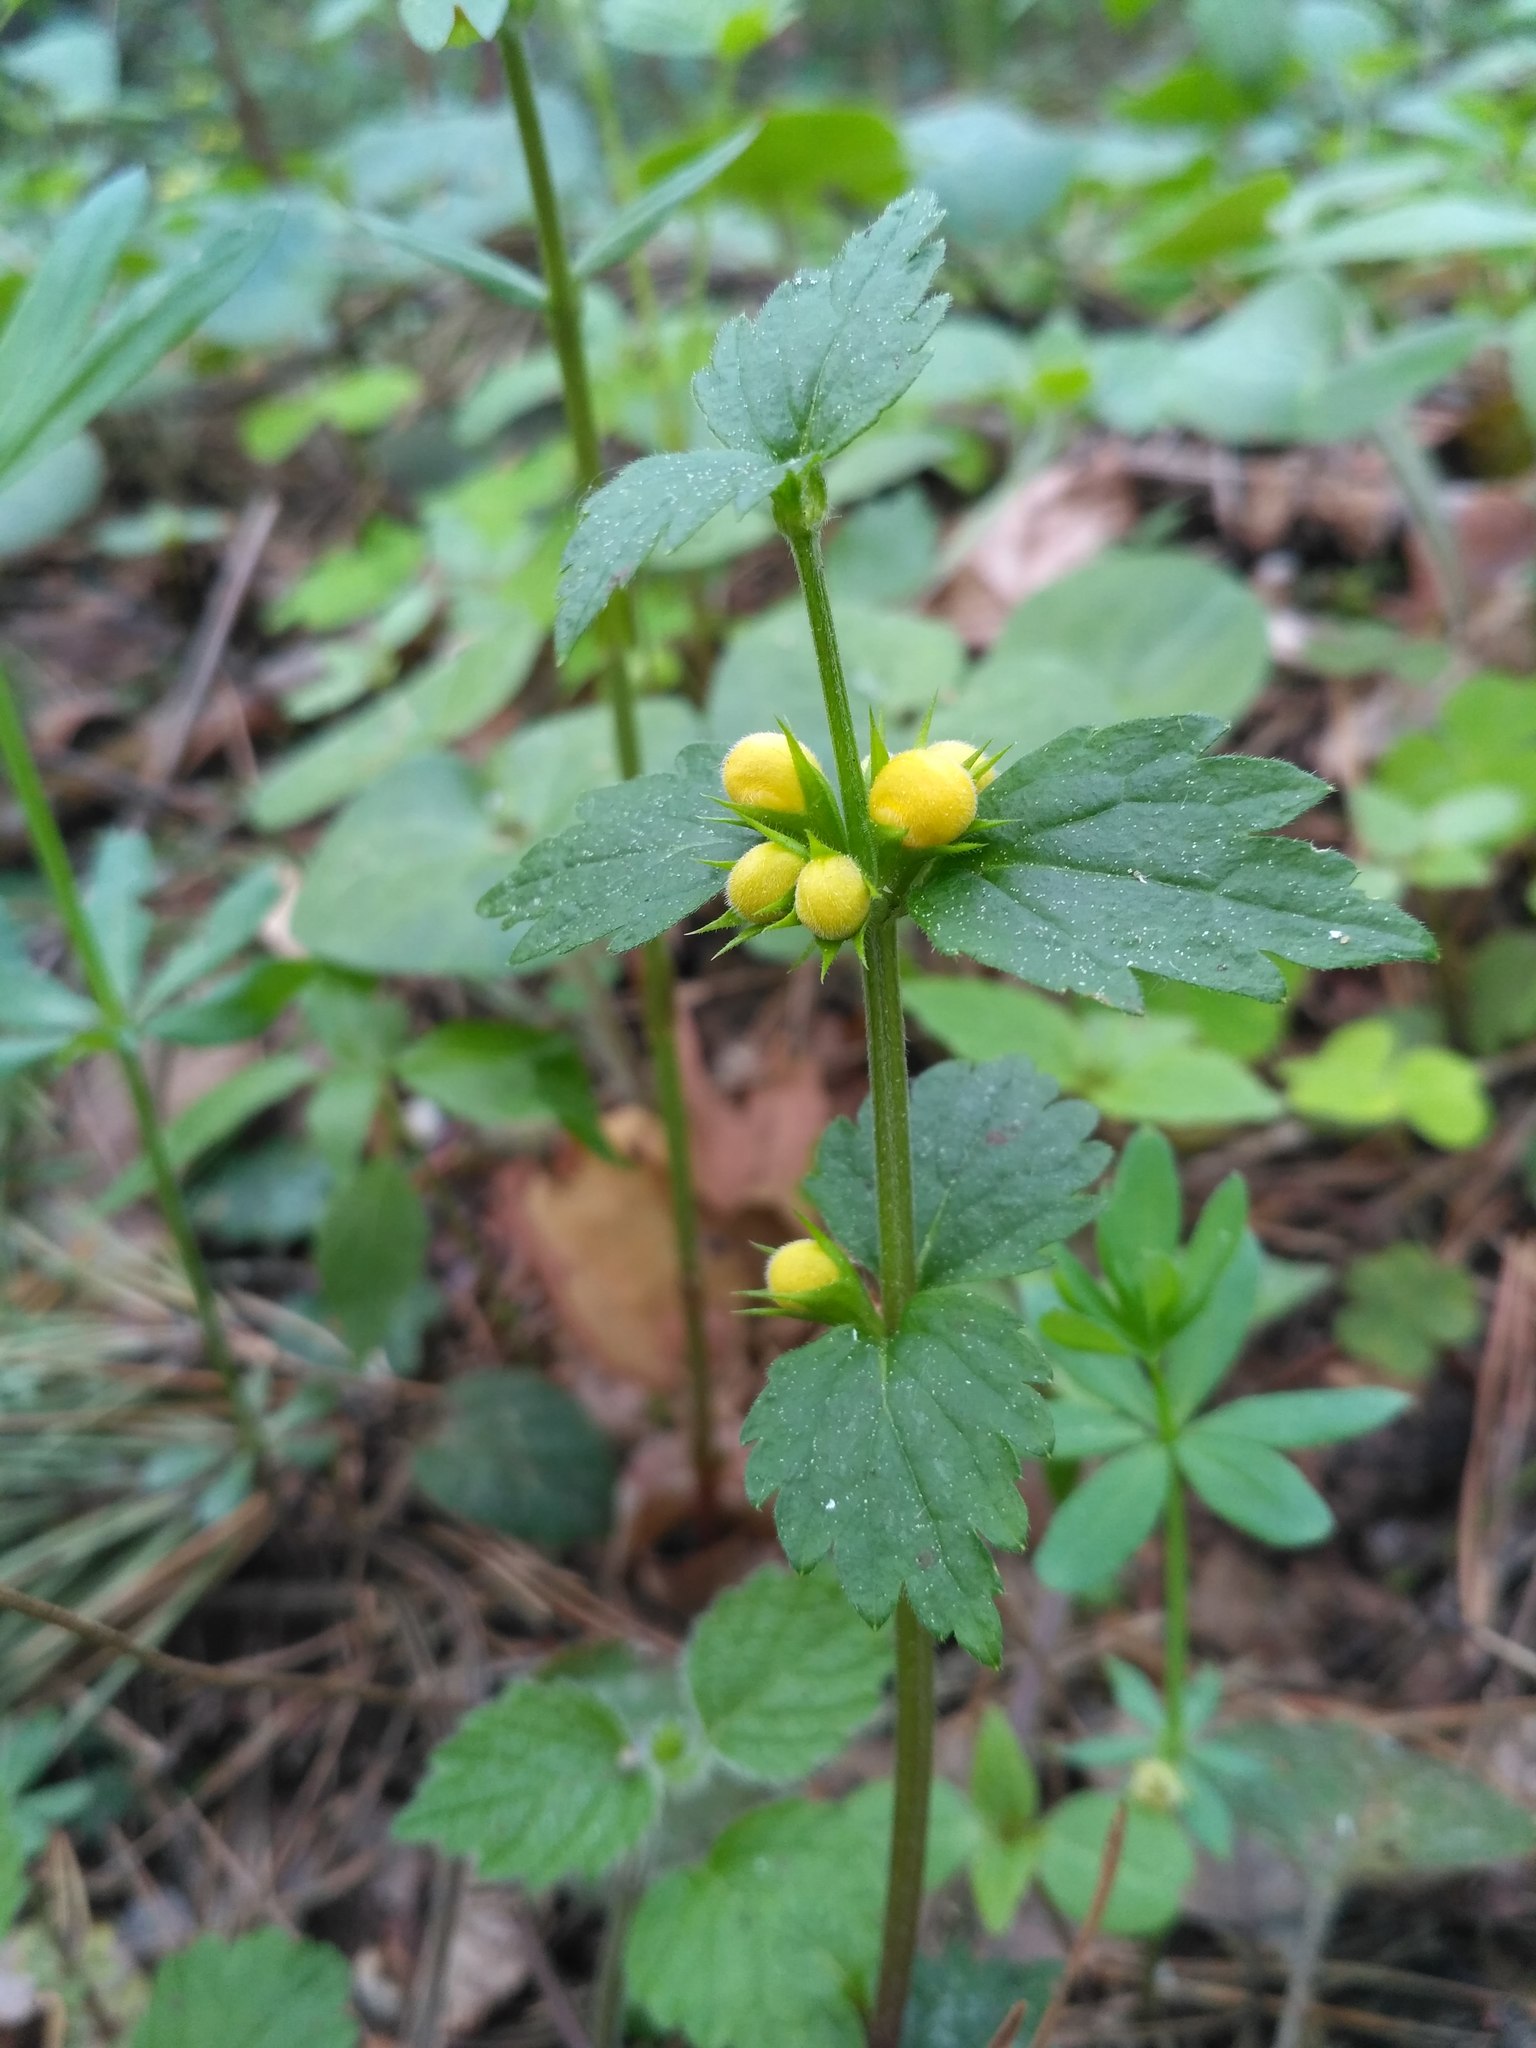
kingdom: Plantae
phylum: Tracheophyta
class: Magnoliopsida
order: Lamiales
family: Lamiaceae
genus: Lamium
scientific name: Lamium galeobdolon
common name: Yellow archangel
